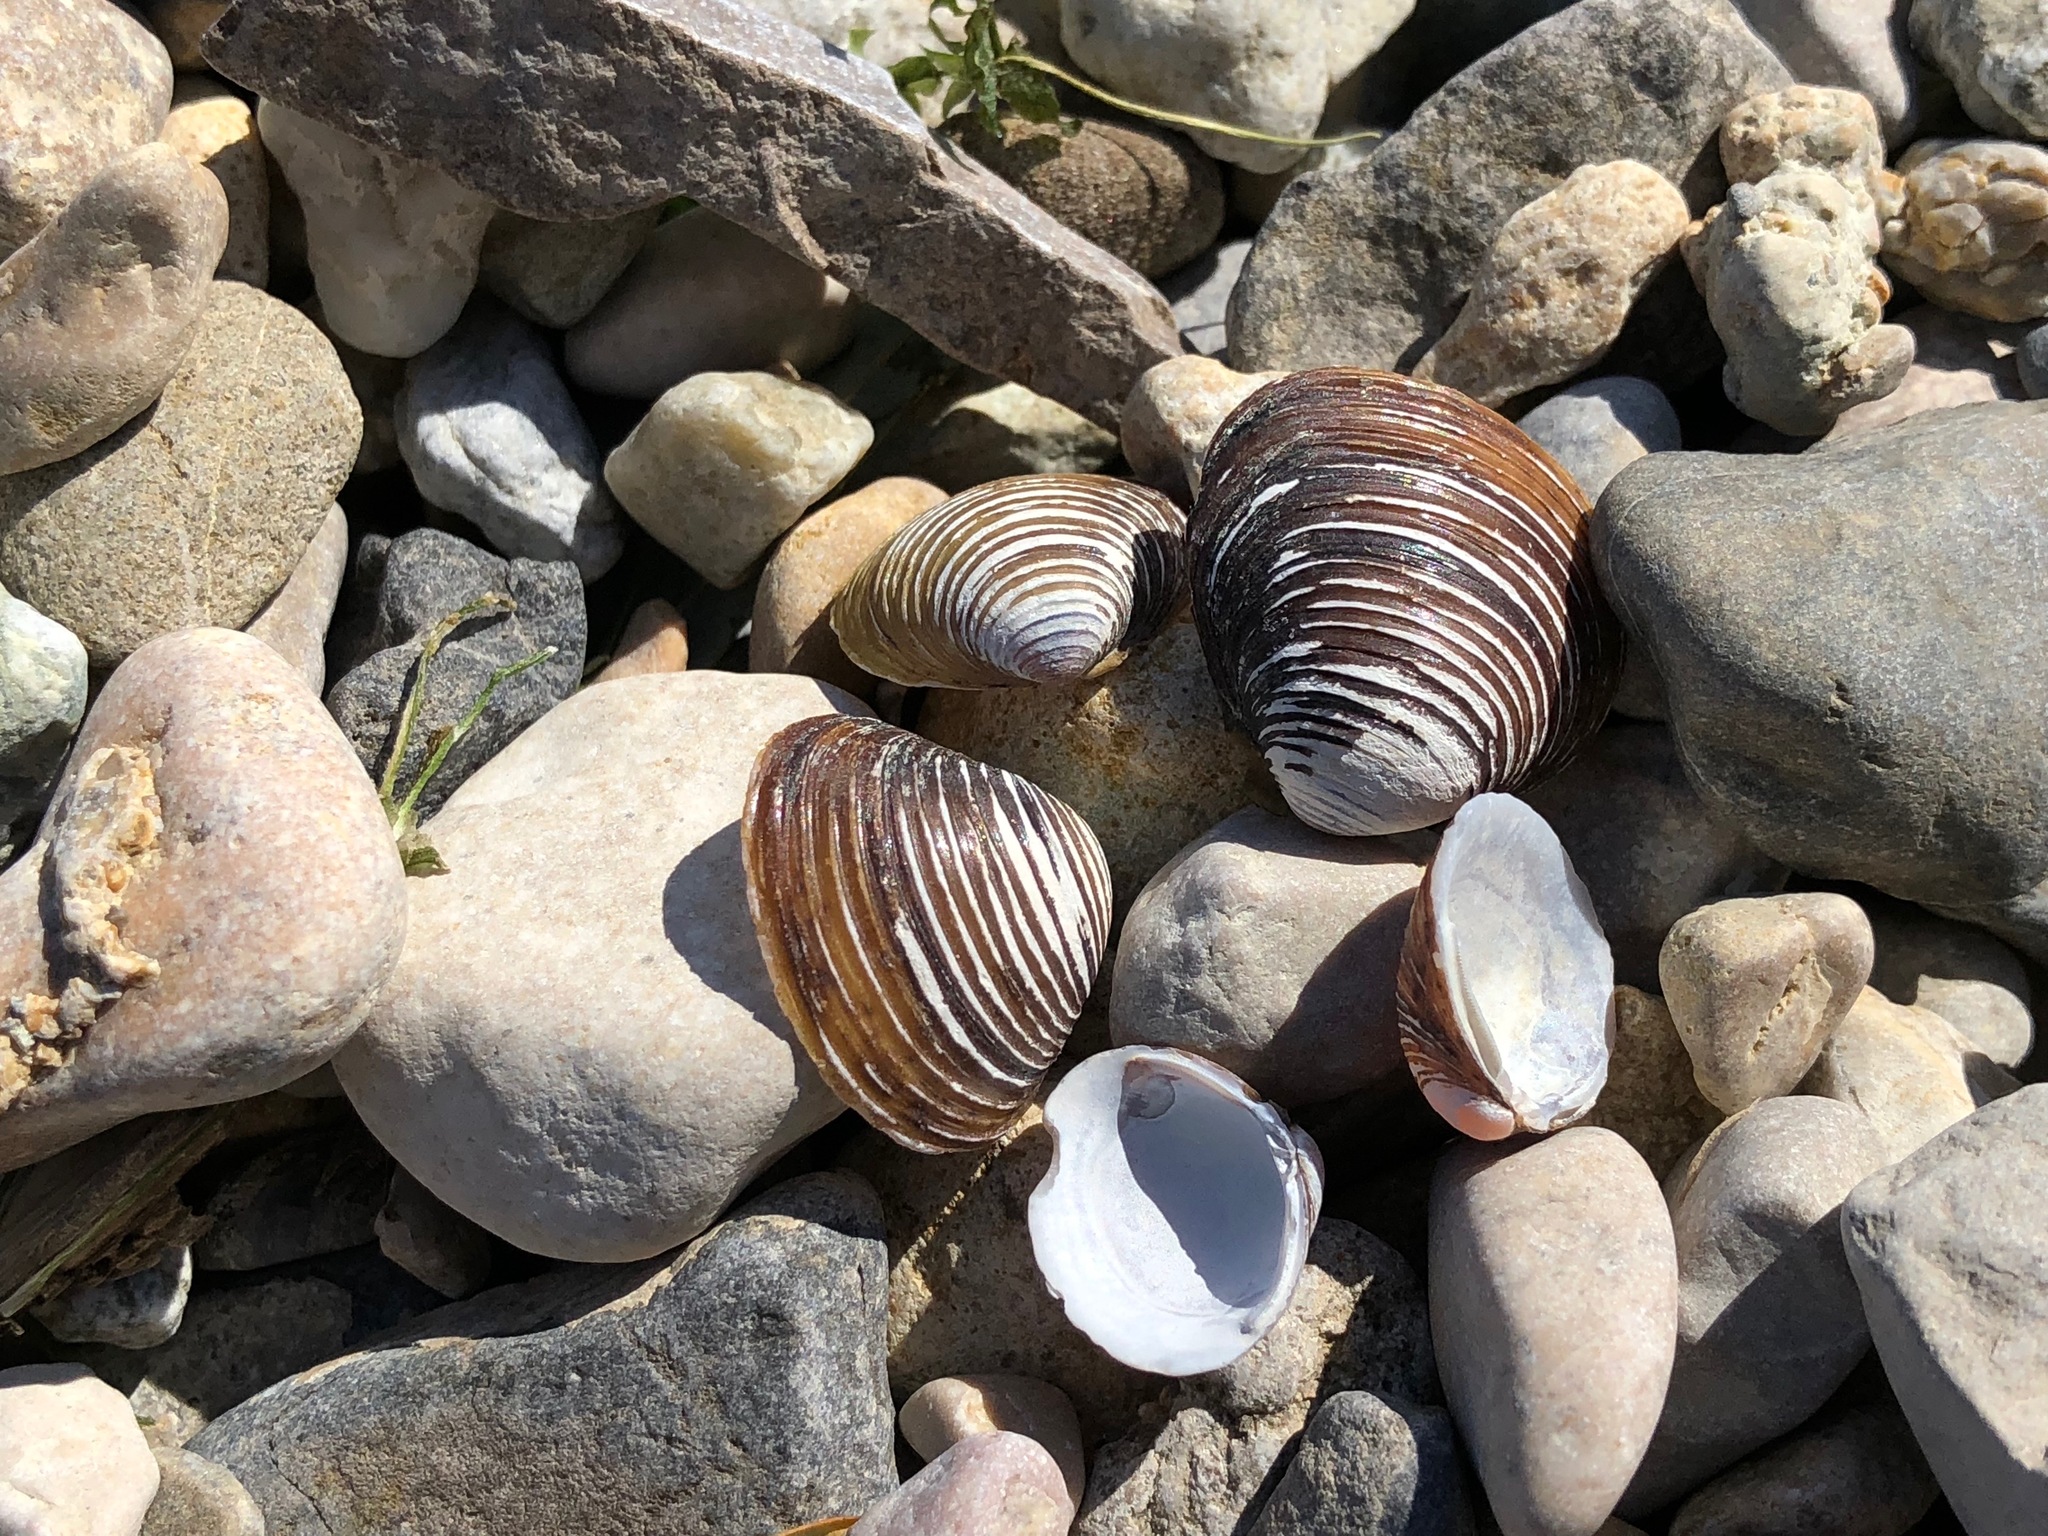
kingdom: Animalia
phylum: Mollusca
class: Bivalvia
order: Venerida
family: Cyrenidae
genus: Corbicula
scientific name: Corbicula fluminea
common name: Asian clam
